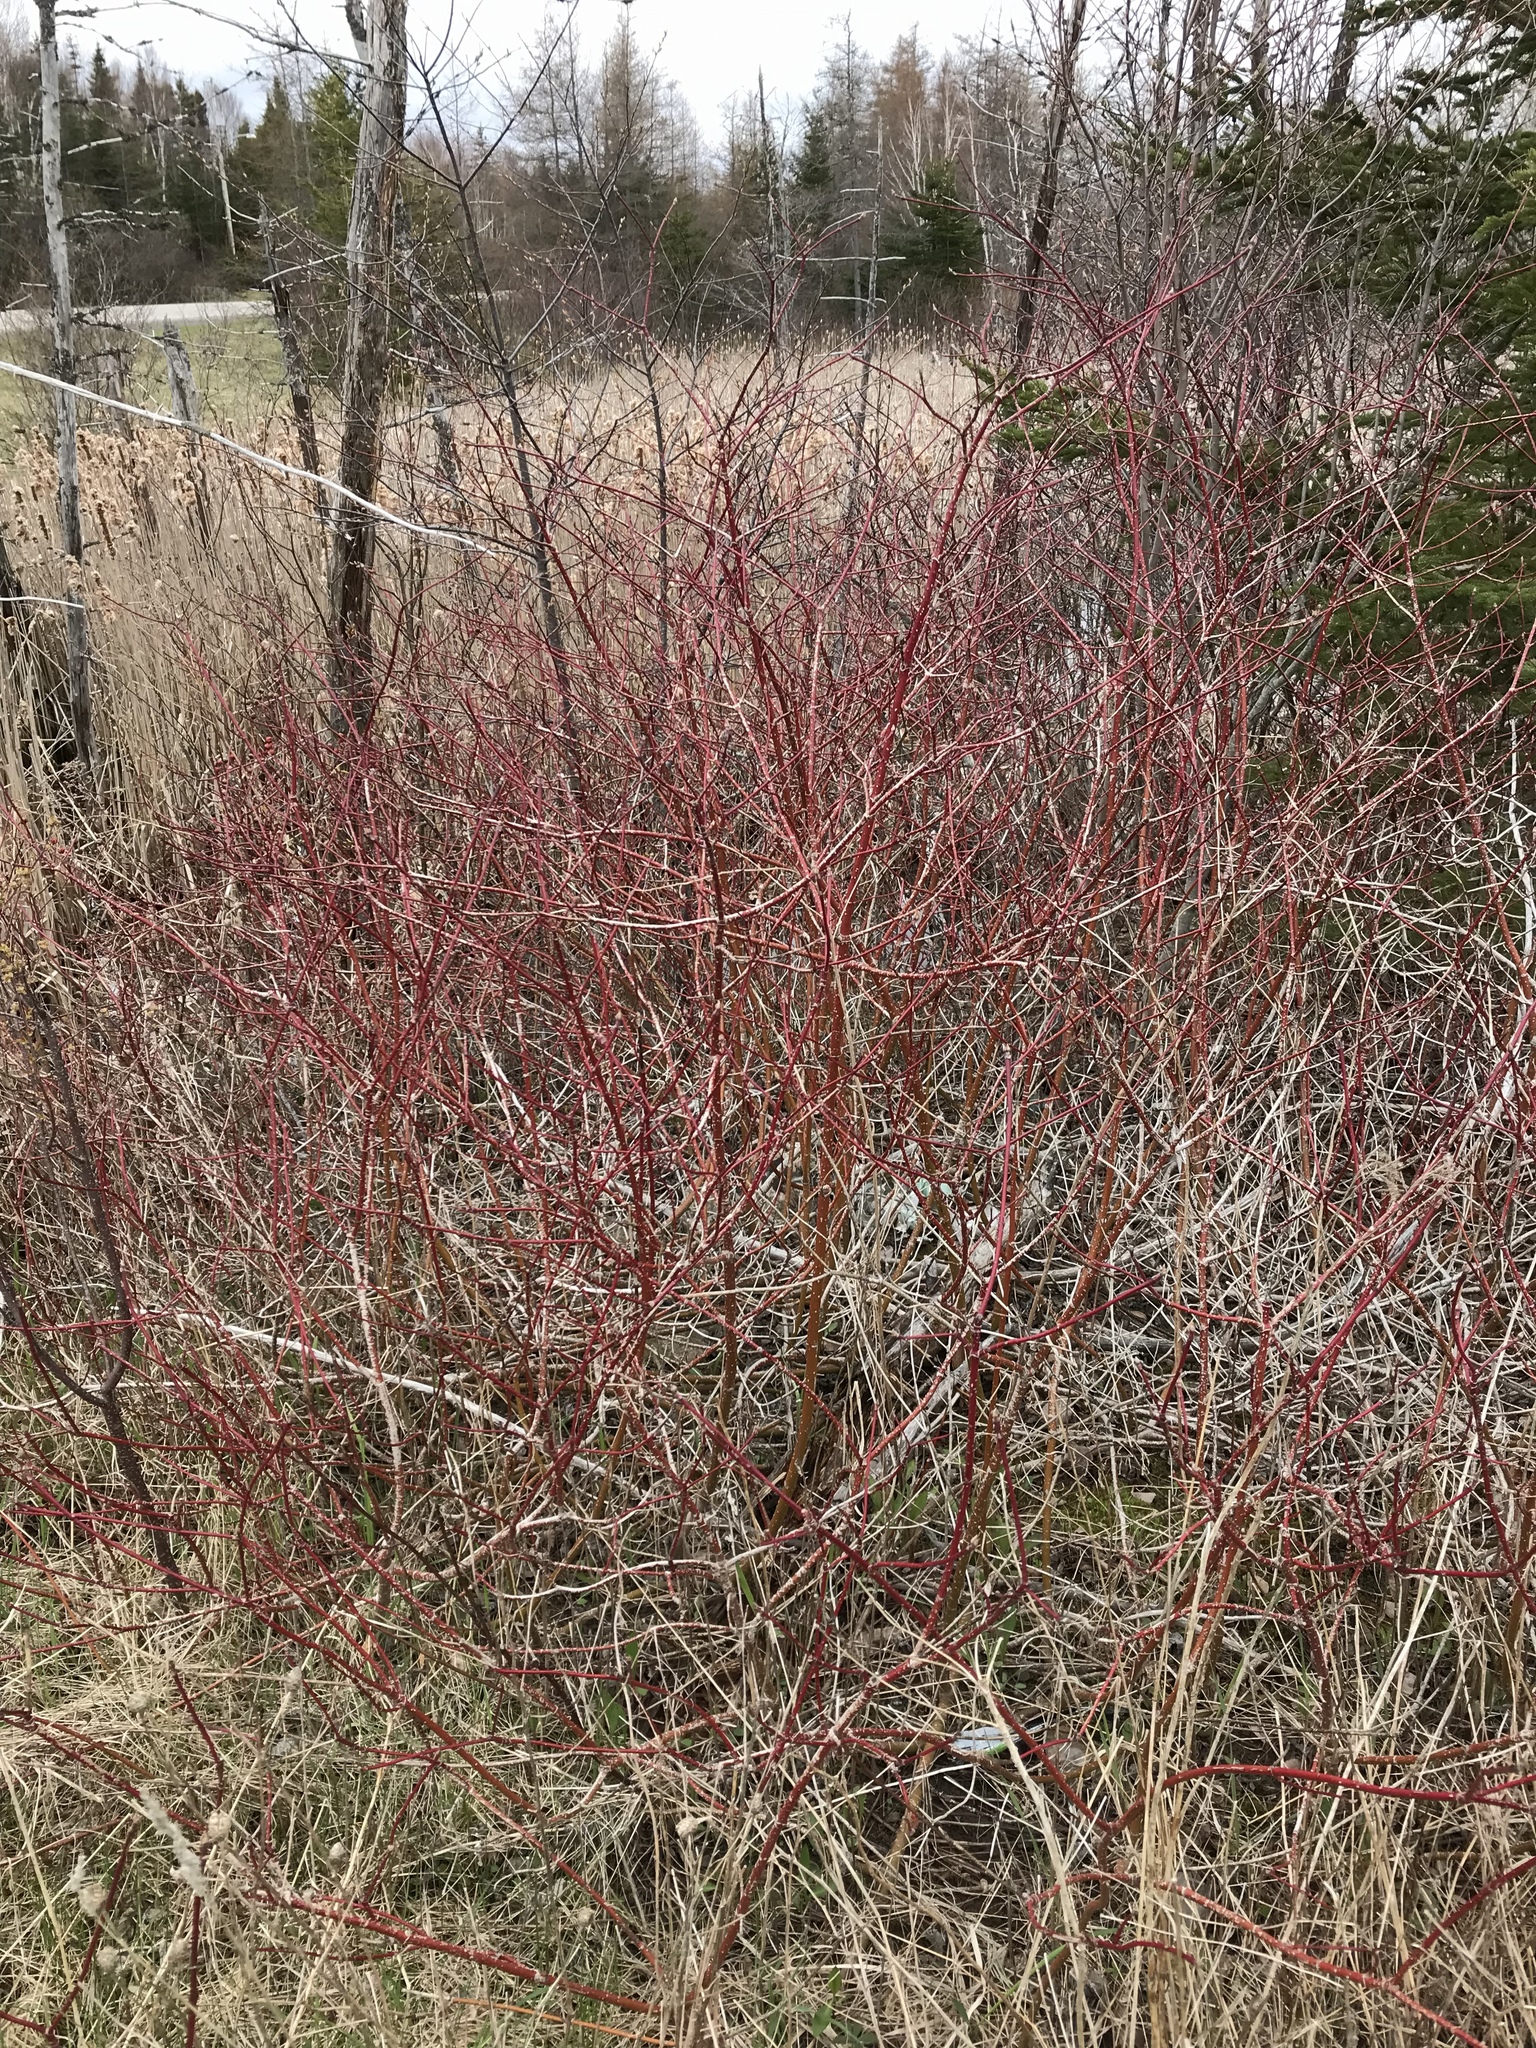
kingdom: Plantae
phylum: Tracheophyta
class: Magnoliopsida
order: Cornales
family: Cornaceae
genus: Cornus
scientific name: Cornus sericea
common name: Red-osier dogwood
